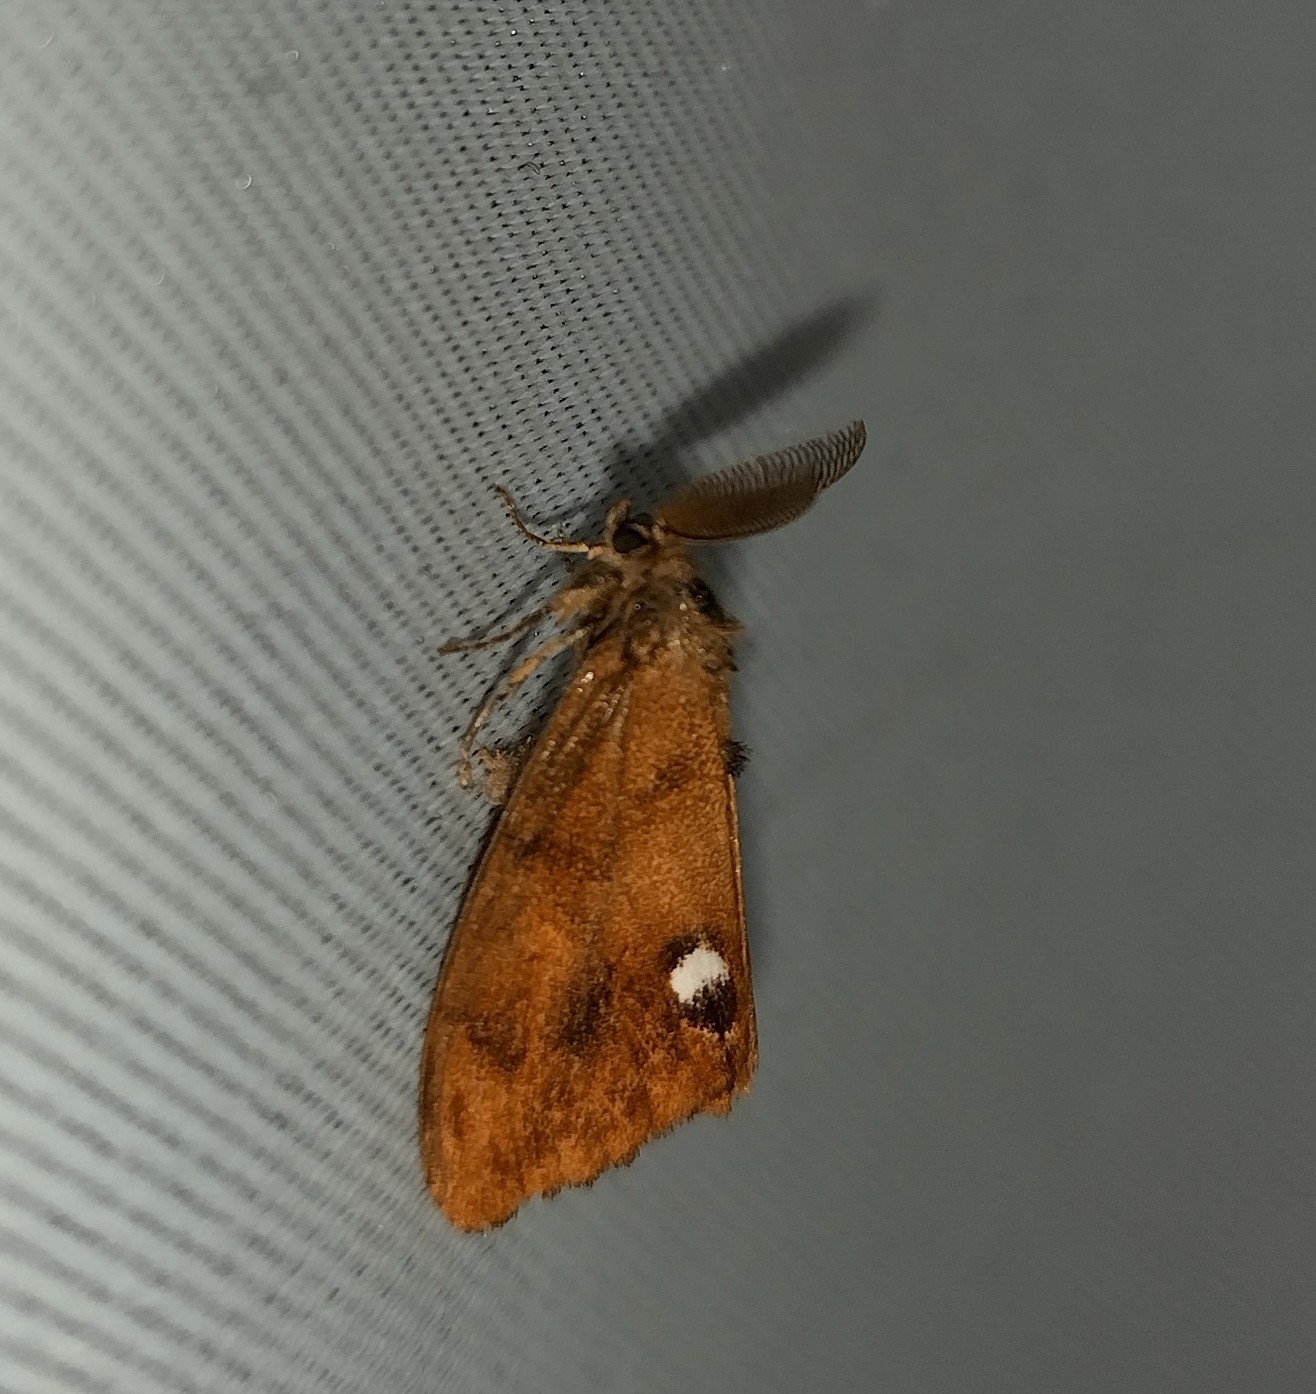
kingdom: Animalia
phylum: Arthropoda
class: Insecta
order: Lepidoptera
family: Erebidae
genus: Orgyia
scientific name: Orgyia antiqua
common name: Vapourer
